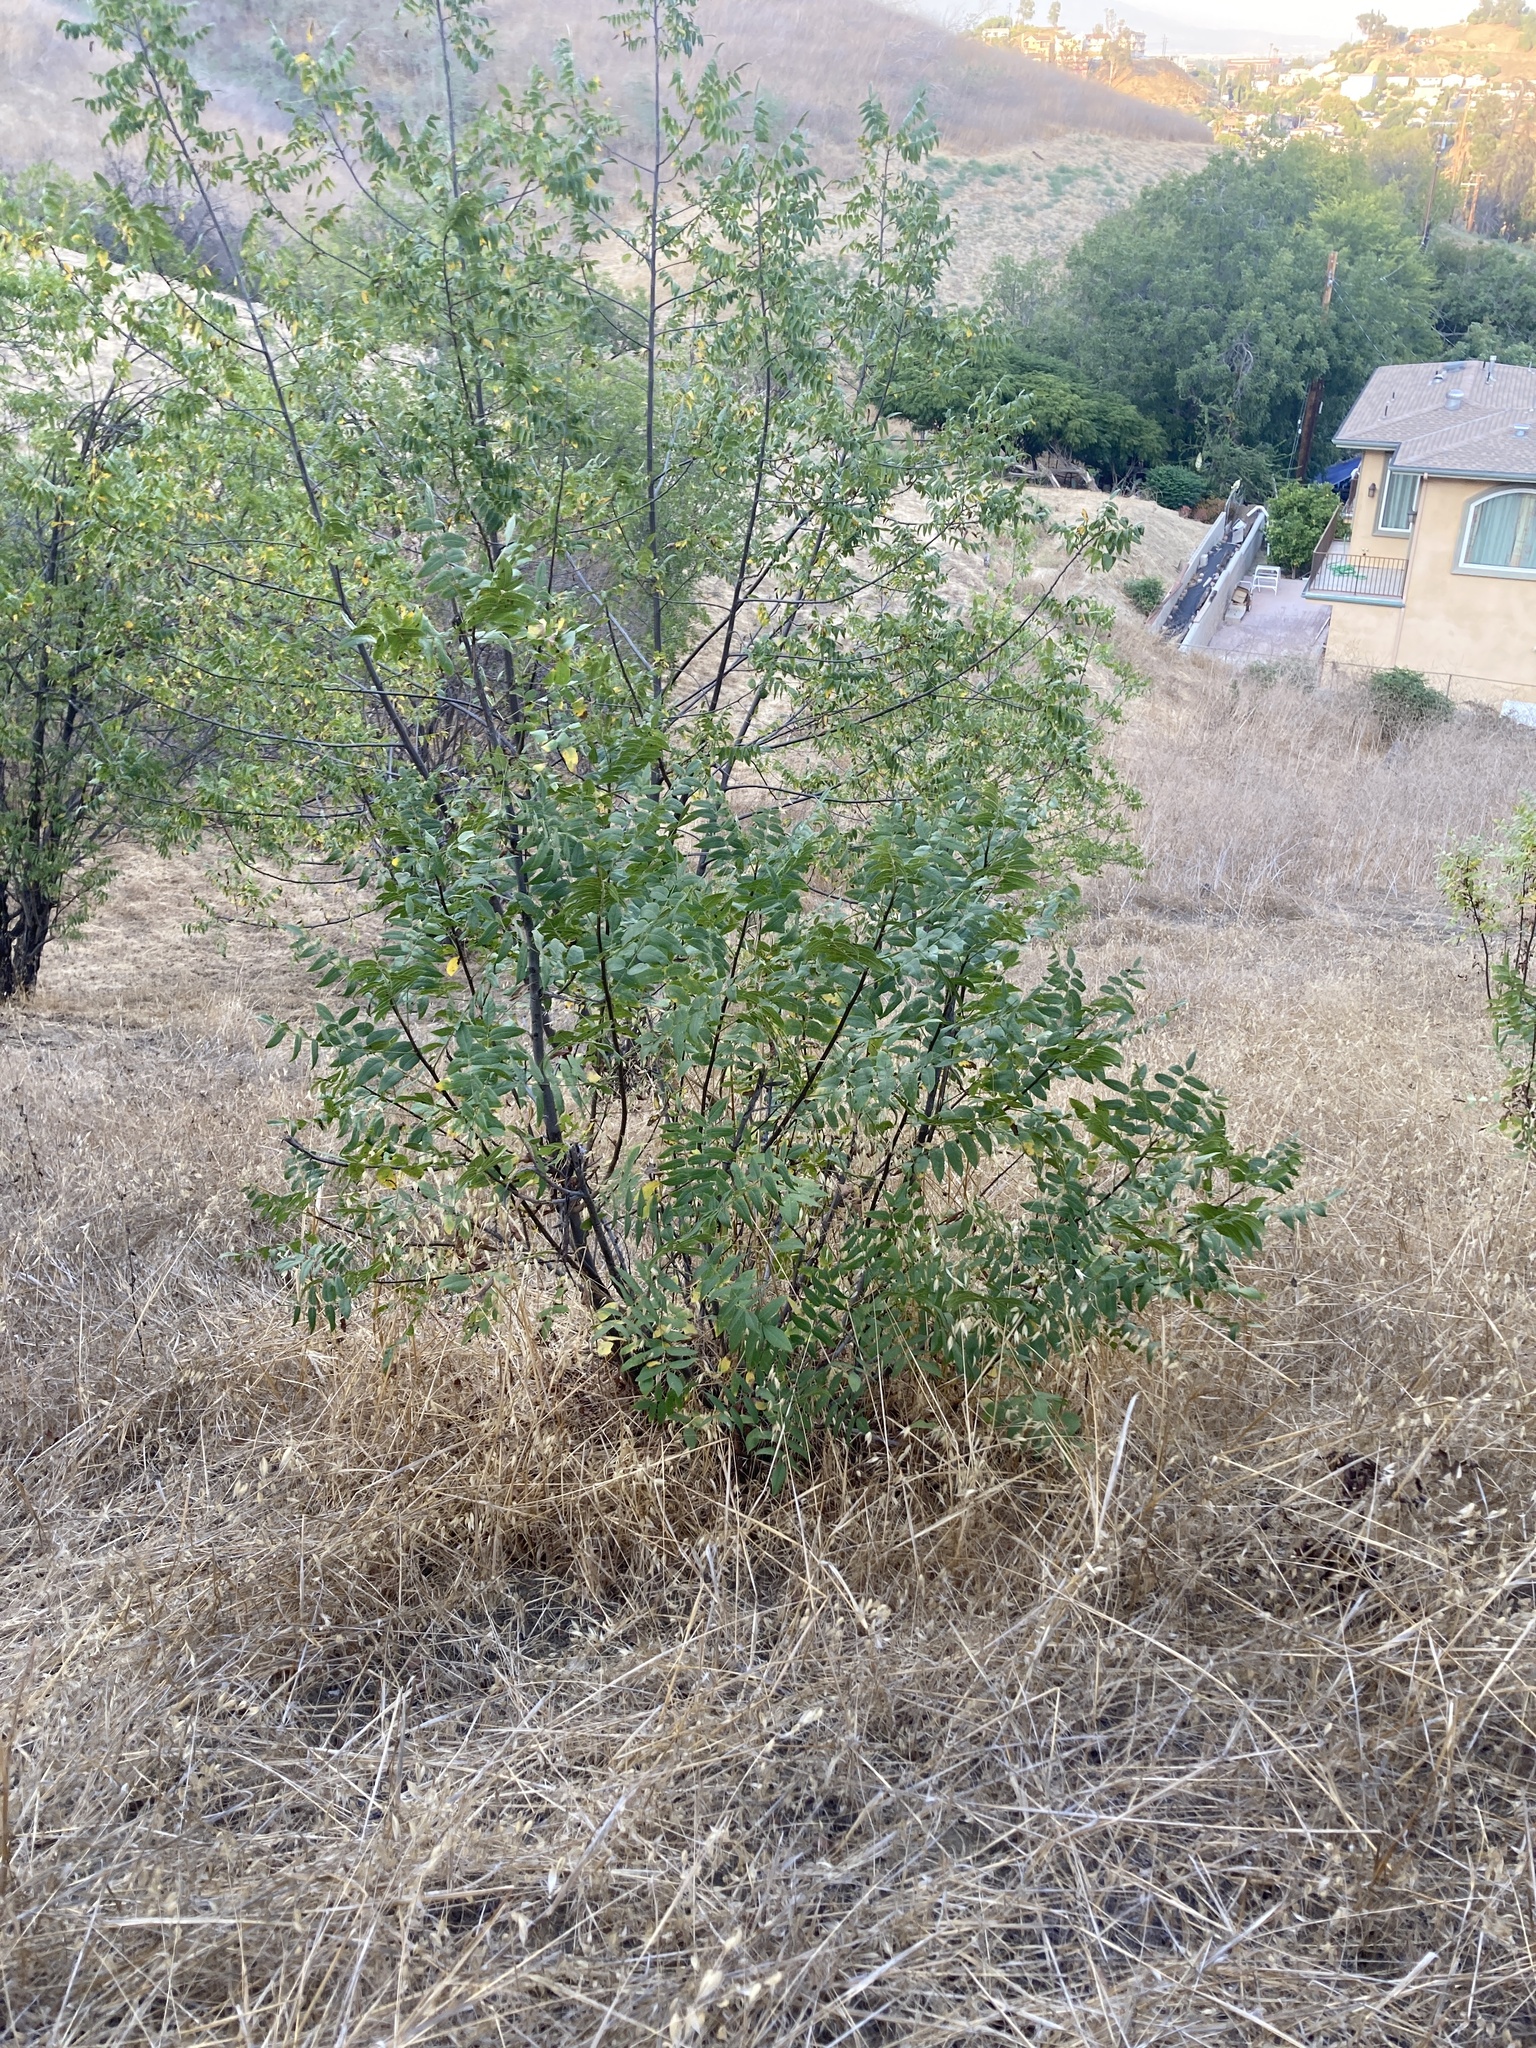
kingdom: Plantae
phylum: Tracheophyta
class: Magnoliopsida
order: Fagales
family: Juglandaceae
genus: Juglans
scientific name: Juglans californica
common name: Southern california black walnut
